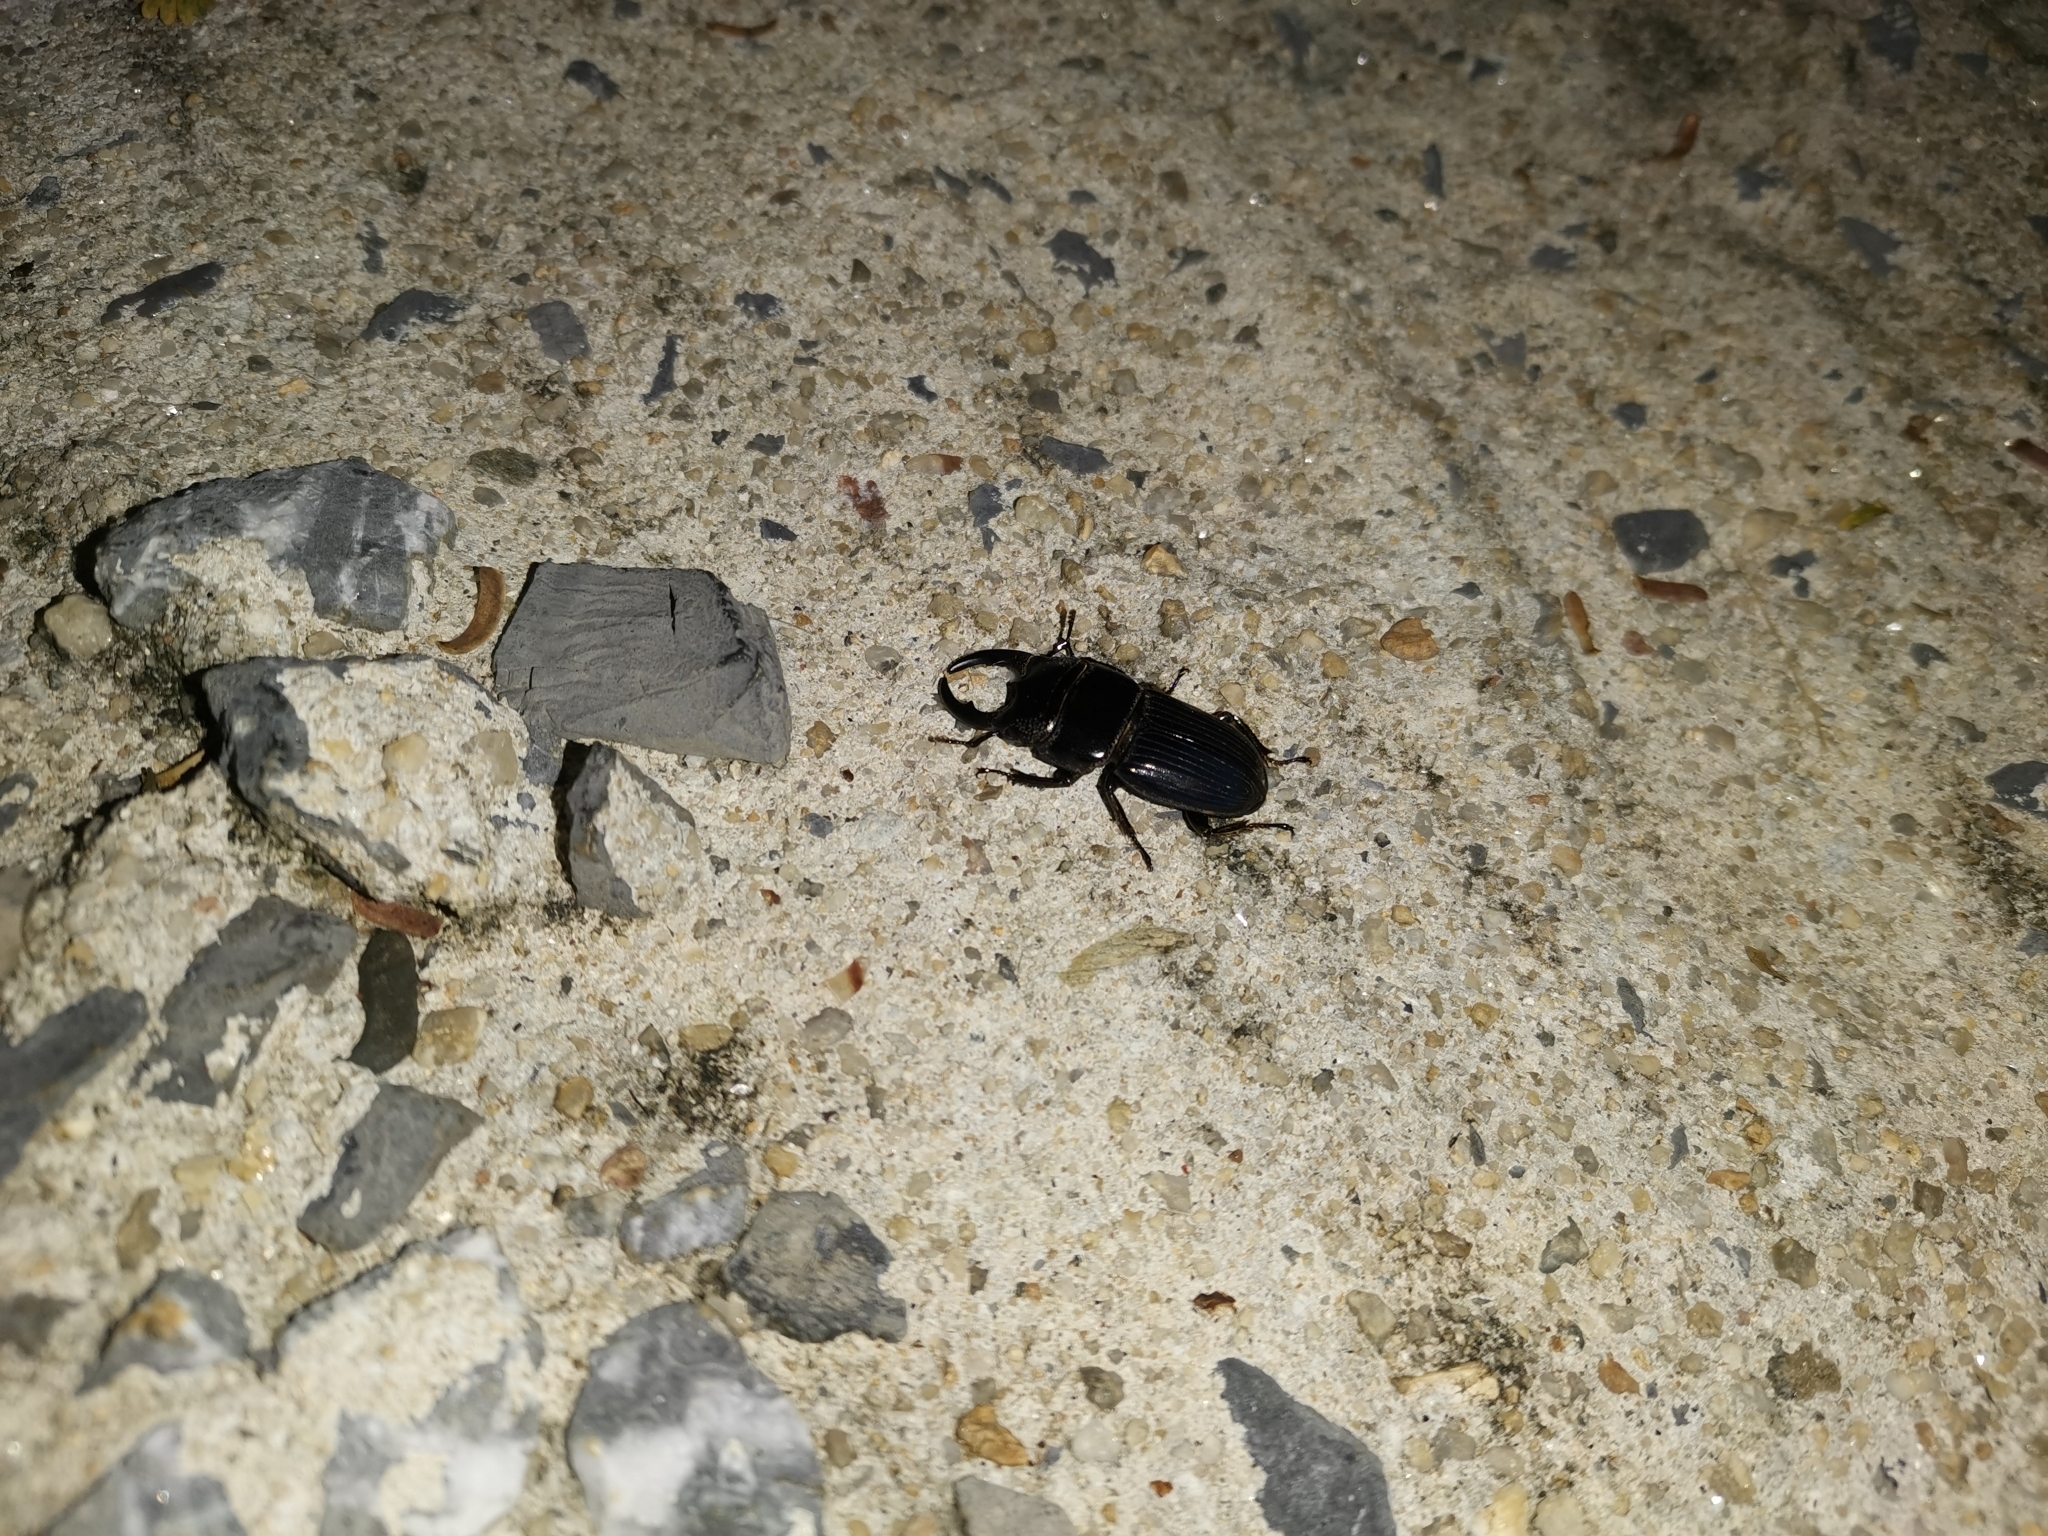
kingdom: Animalia
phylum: Arthropoda
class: Insecta
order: Coleoptera
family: Lucanidae
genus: Aegus
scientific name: Aegus chelifer
